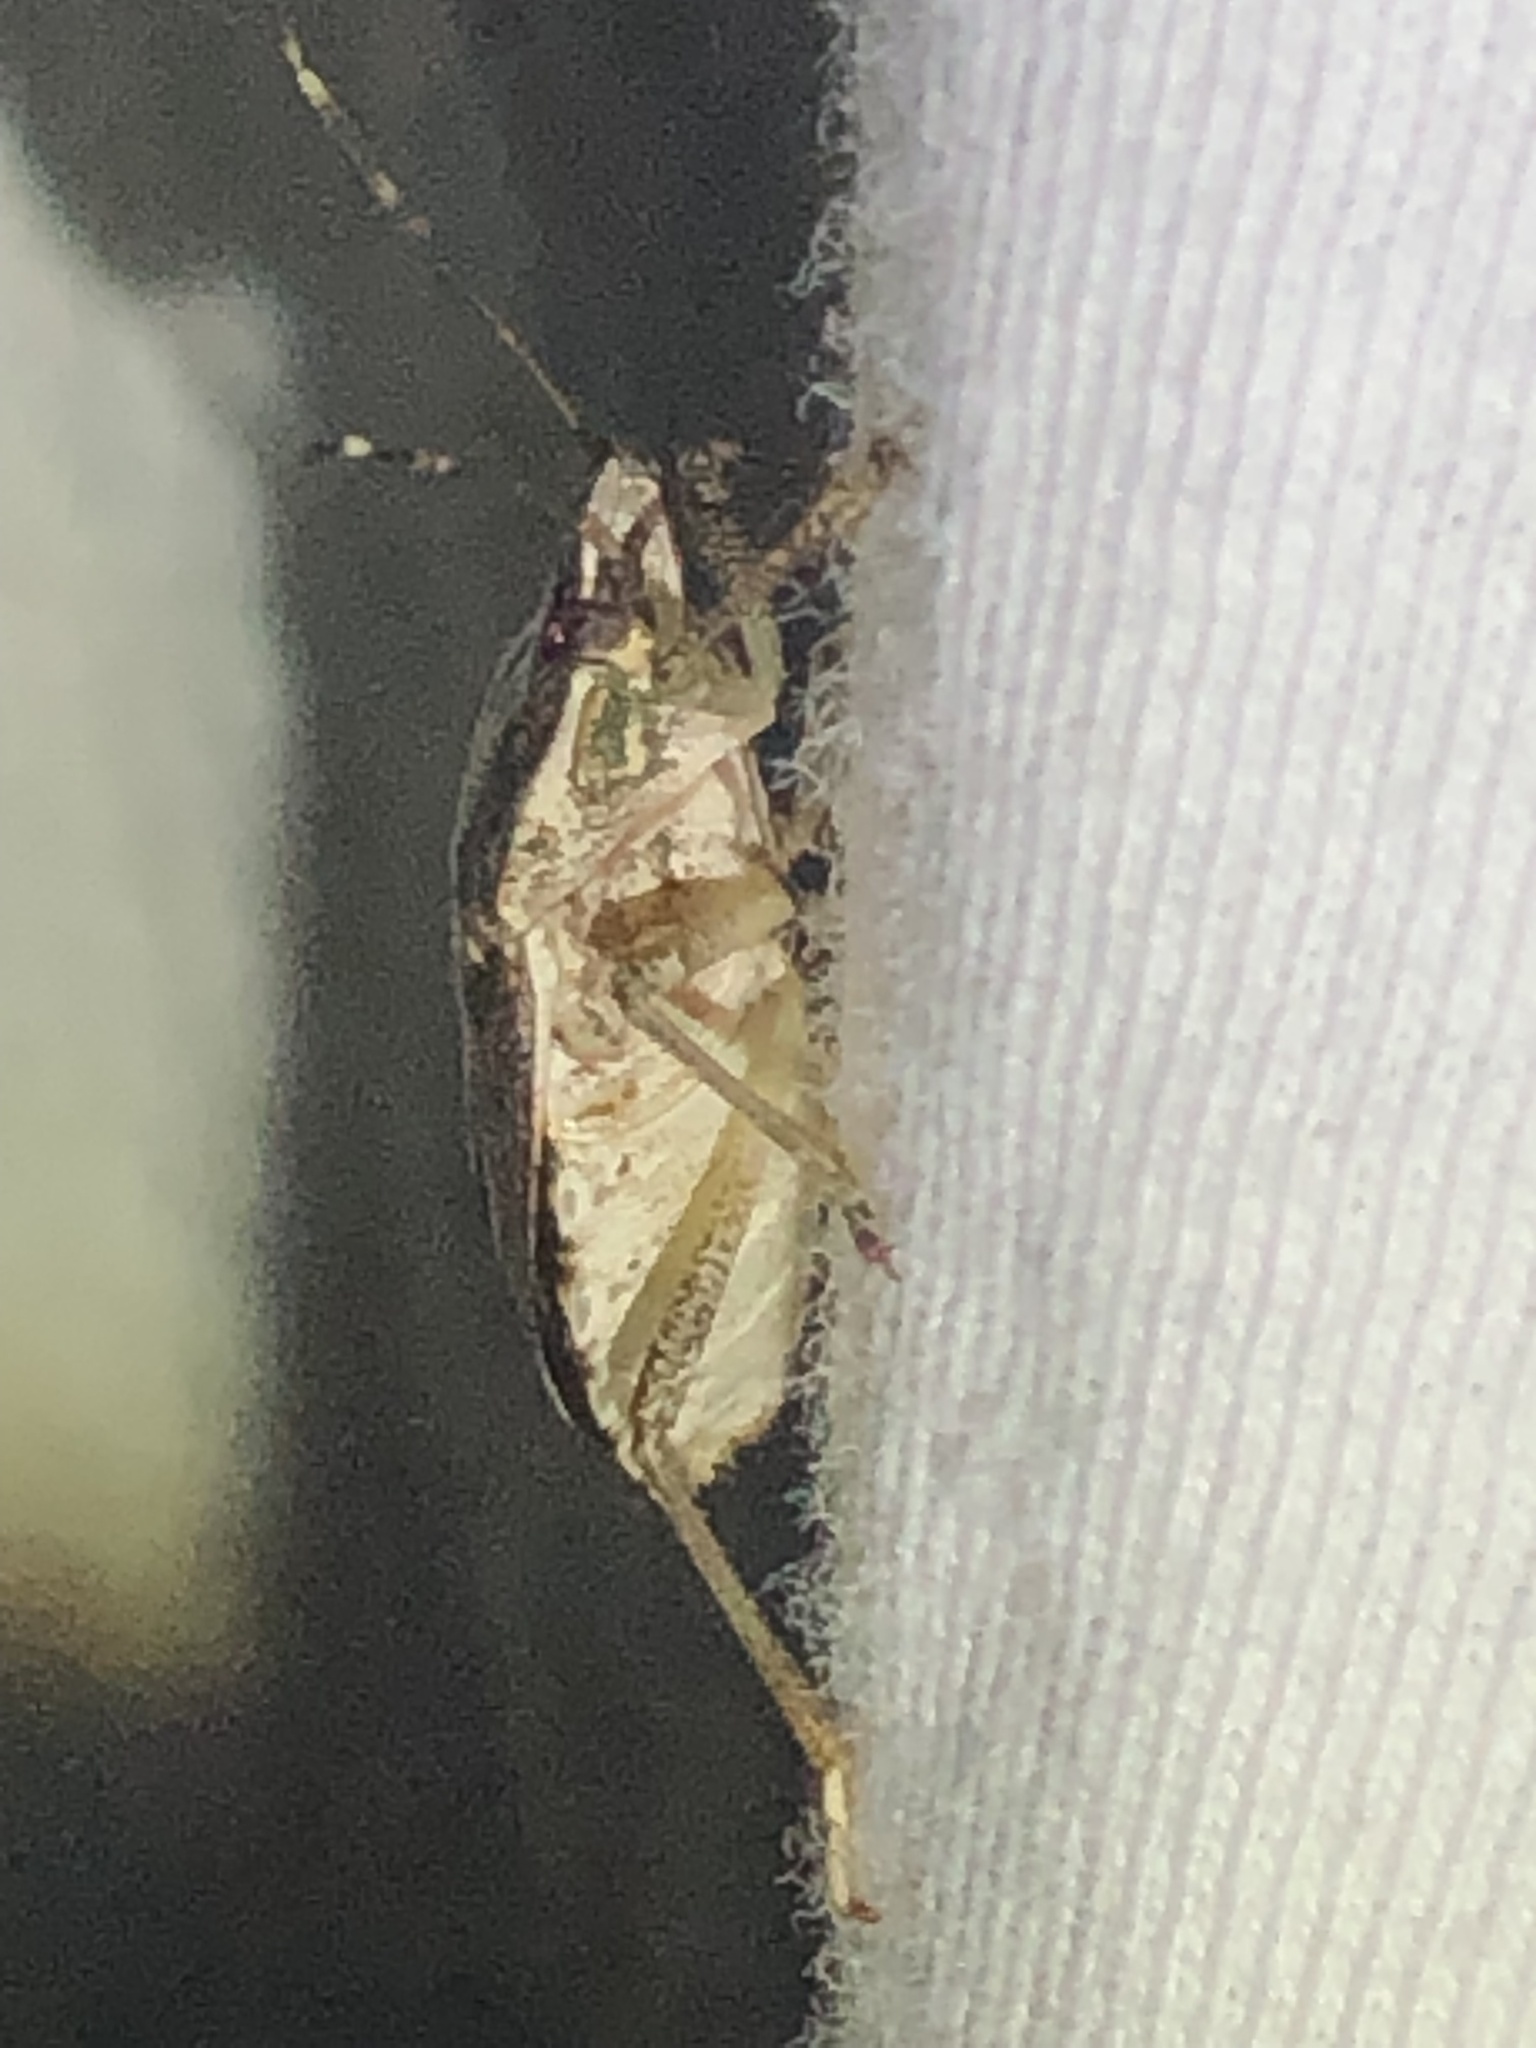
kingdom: Animalia
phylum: Arthropoda
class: Insecta
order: Hemiptera
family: Pentatomidae
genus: Halyomorpha
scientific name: Halyomorpha halys
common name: Brown marmorated stink bug
